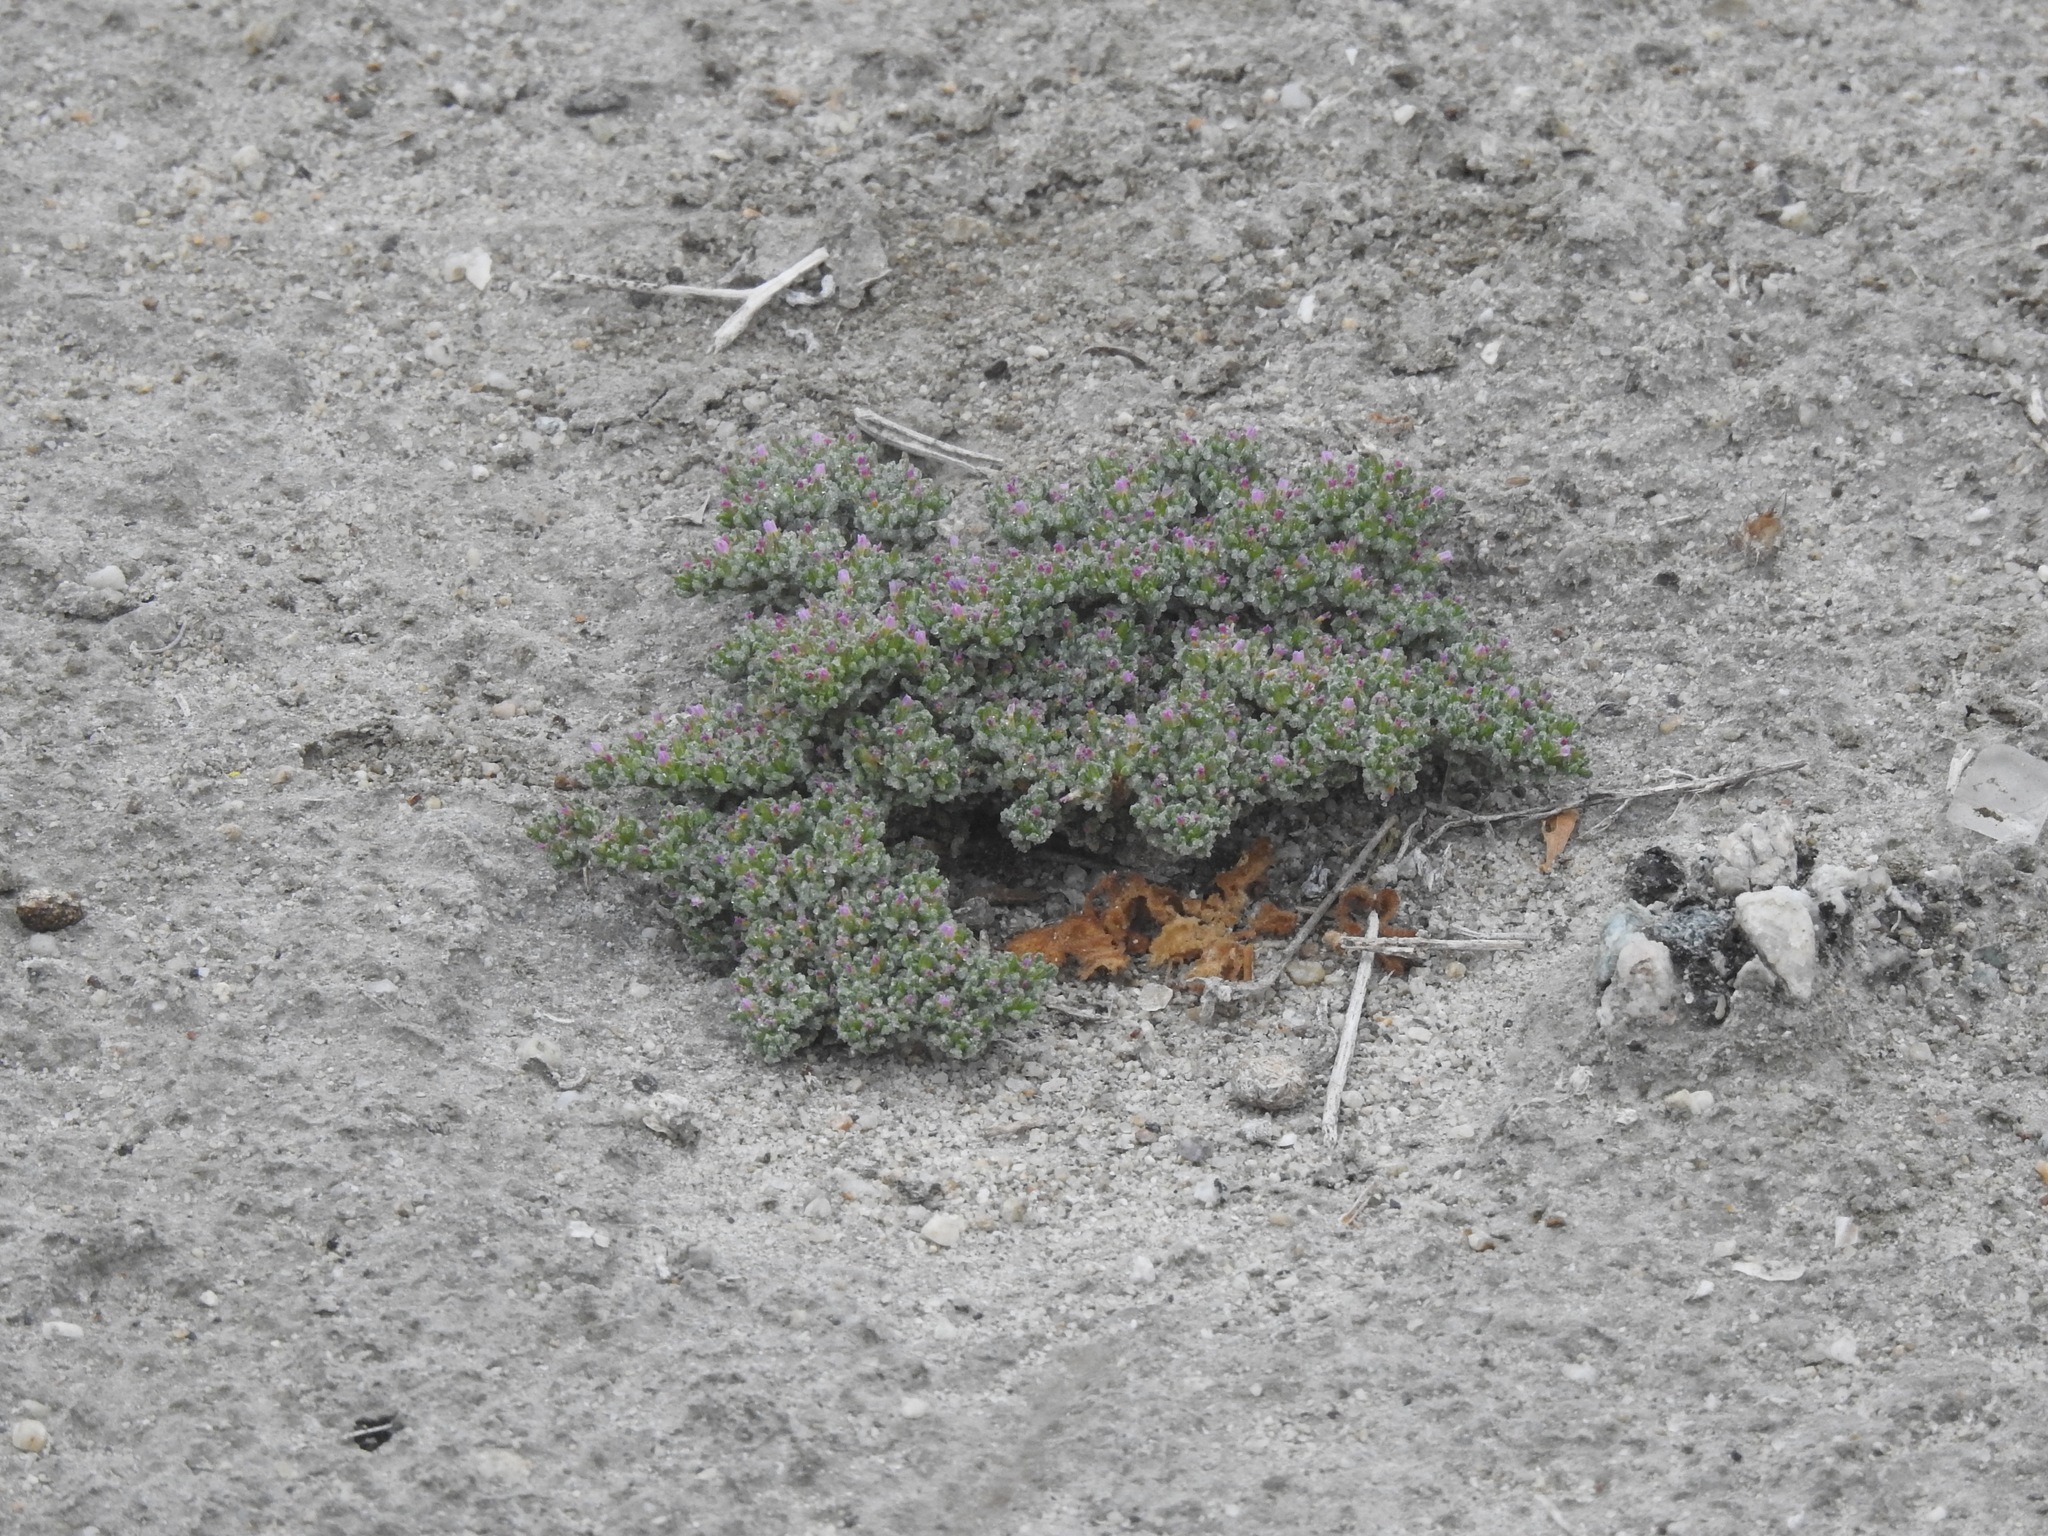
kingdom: Plantae
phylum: Tracheophyta
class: Magnoliopsida
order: Caryophyllales
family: Frankeniaceae
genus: Frankenia
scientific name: Frankenia pulverulenta
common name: European seaheath
